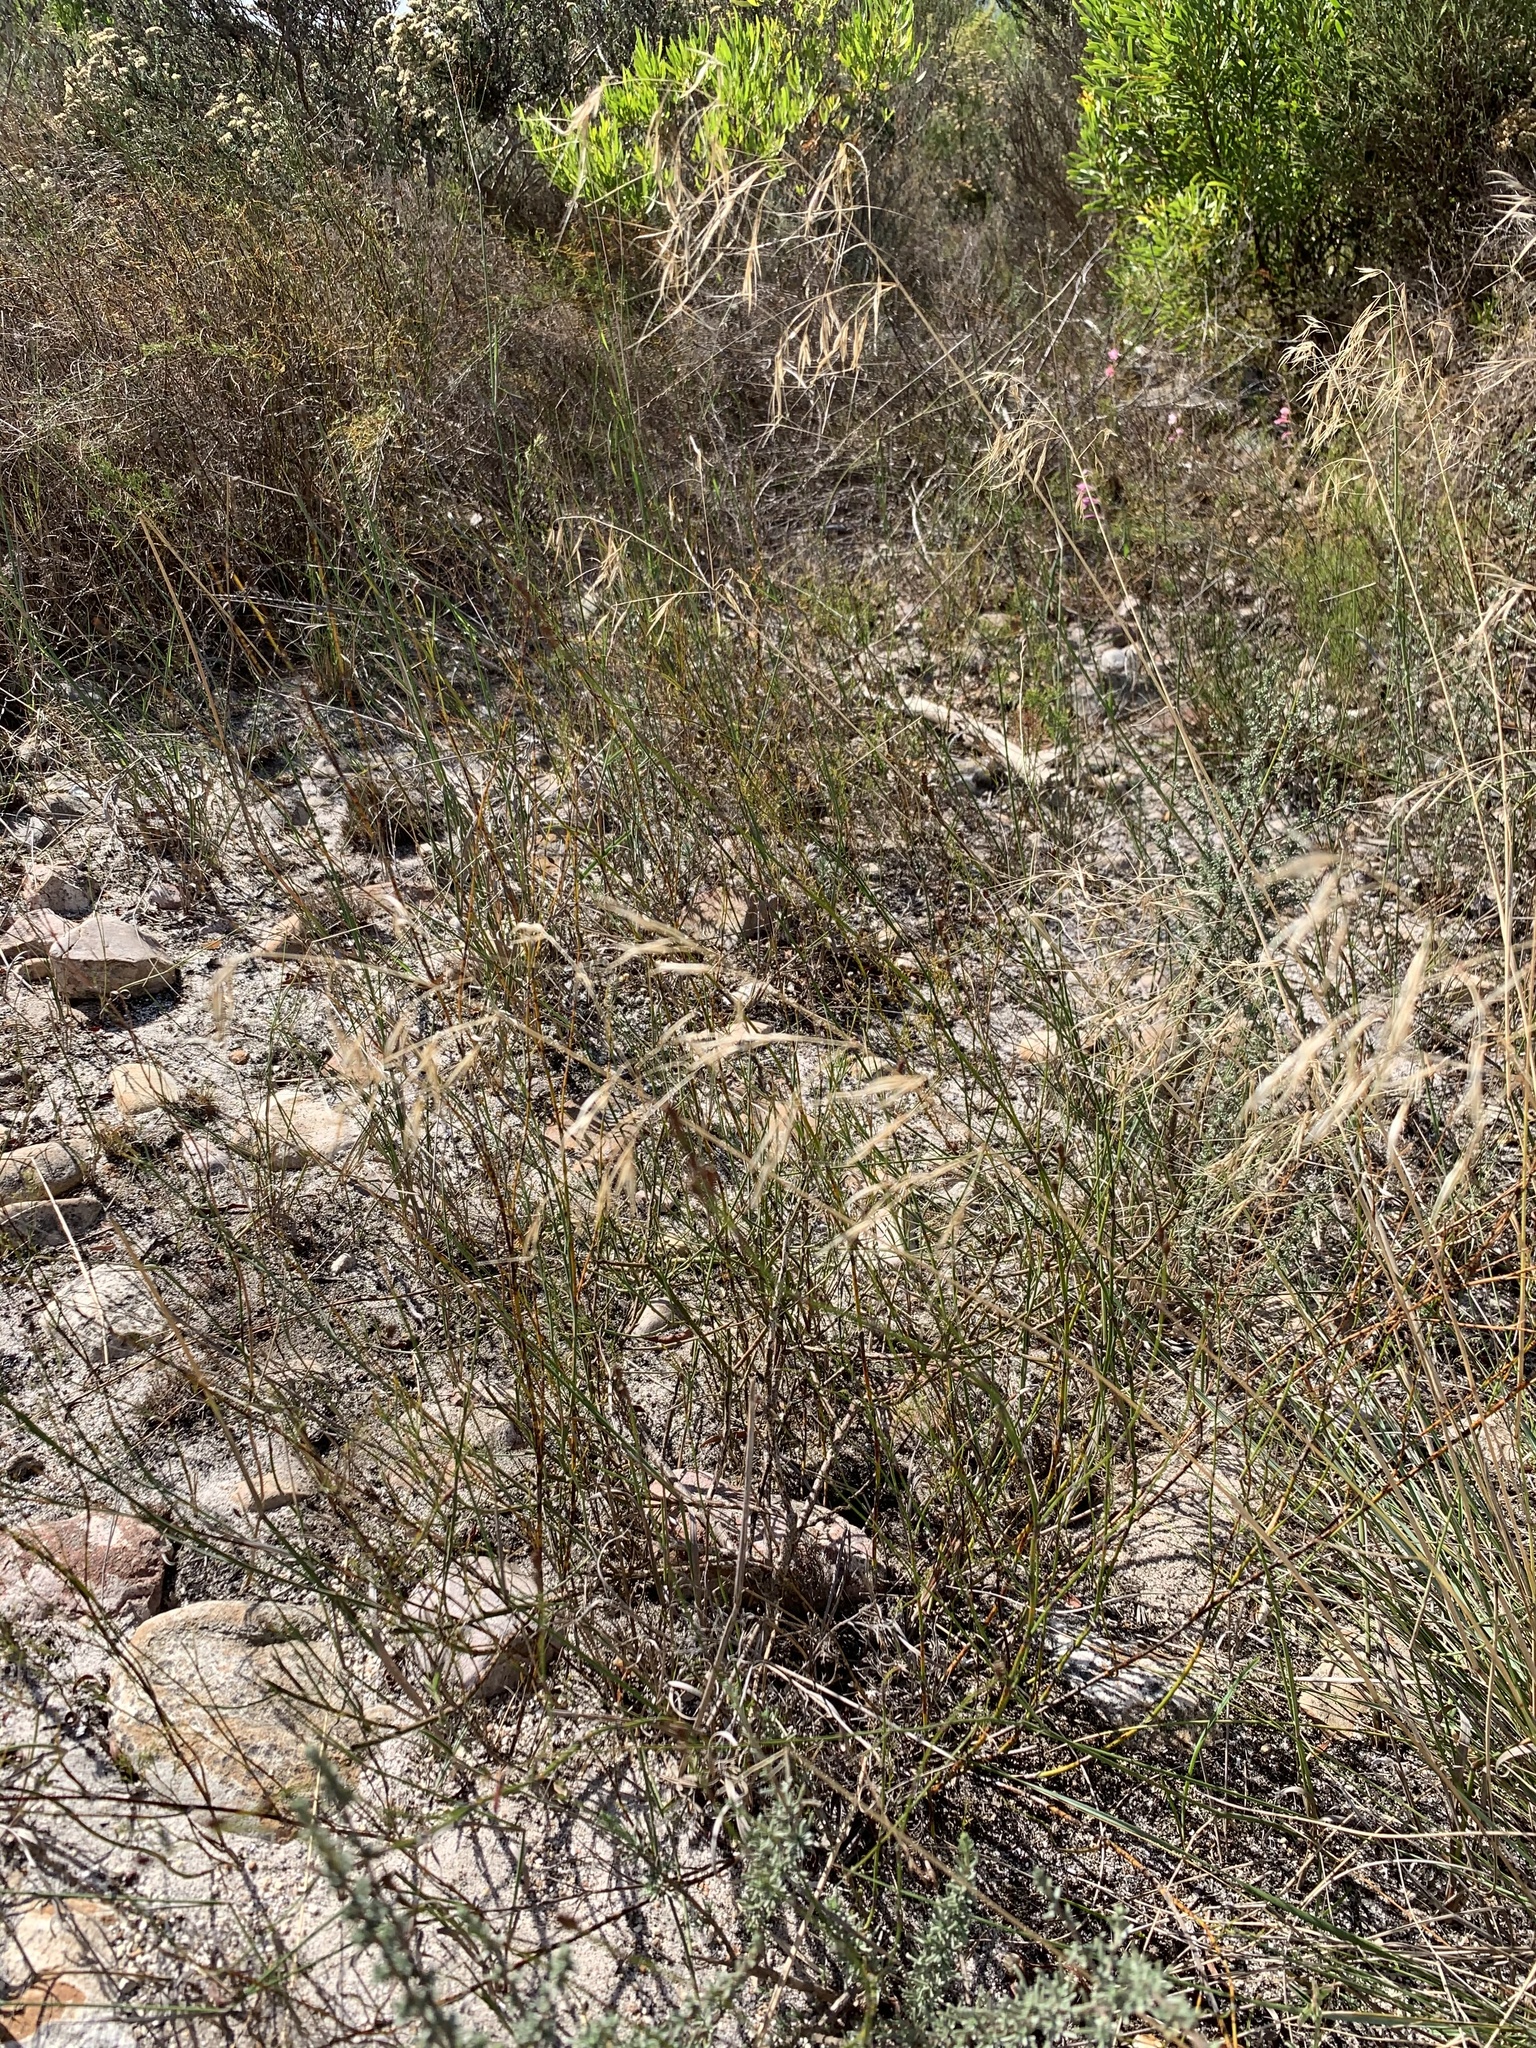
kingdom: Plantae
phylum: Tracheophyta
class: Liliopsida
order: Poales
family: Poaceae
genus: Aristida
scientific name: Aristida diffusa
